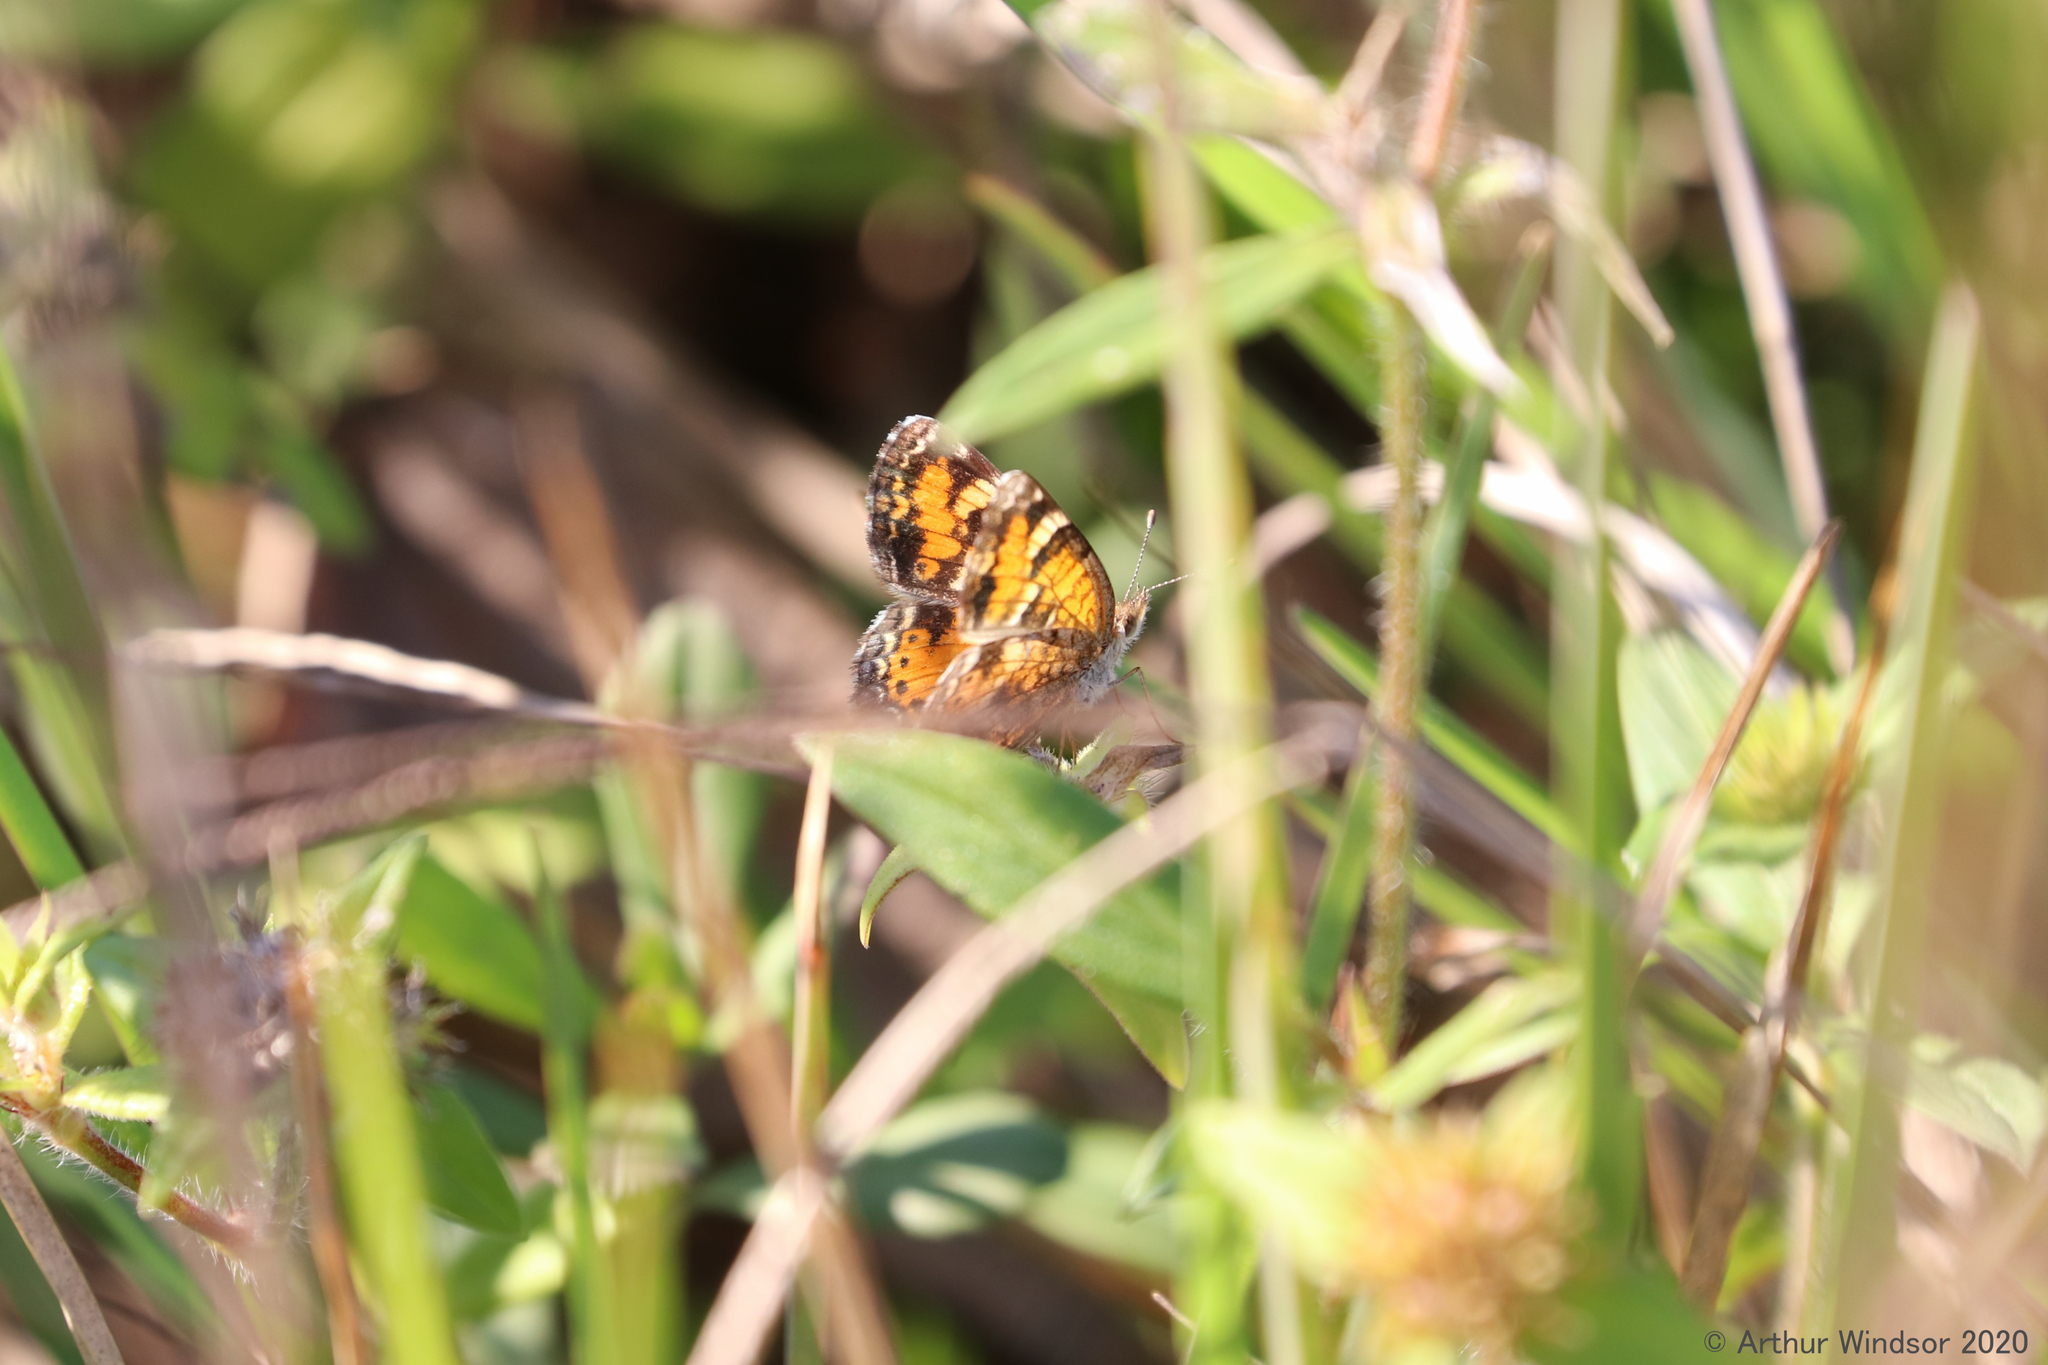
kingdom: Animalia
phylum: Arthropoda
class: Insecta
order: Lepidoptera
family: Nymphalidae
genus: Phyciodes
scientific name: Phyciodes phaon
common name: Phaon crescent
